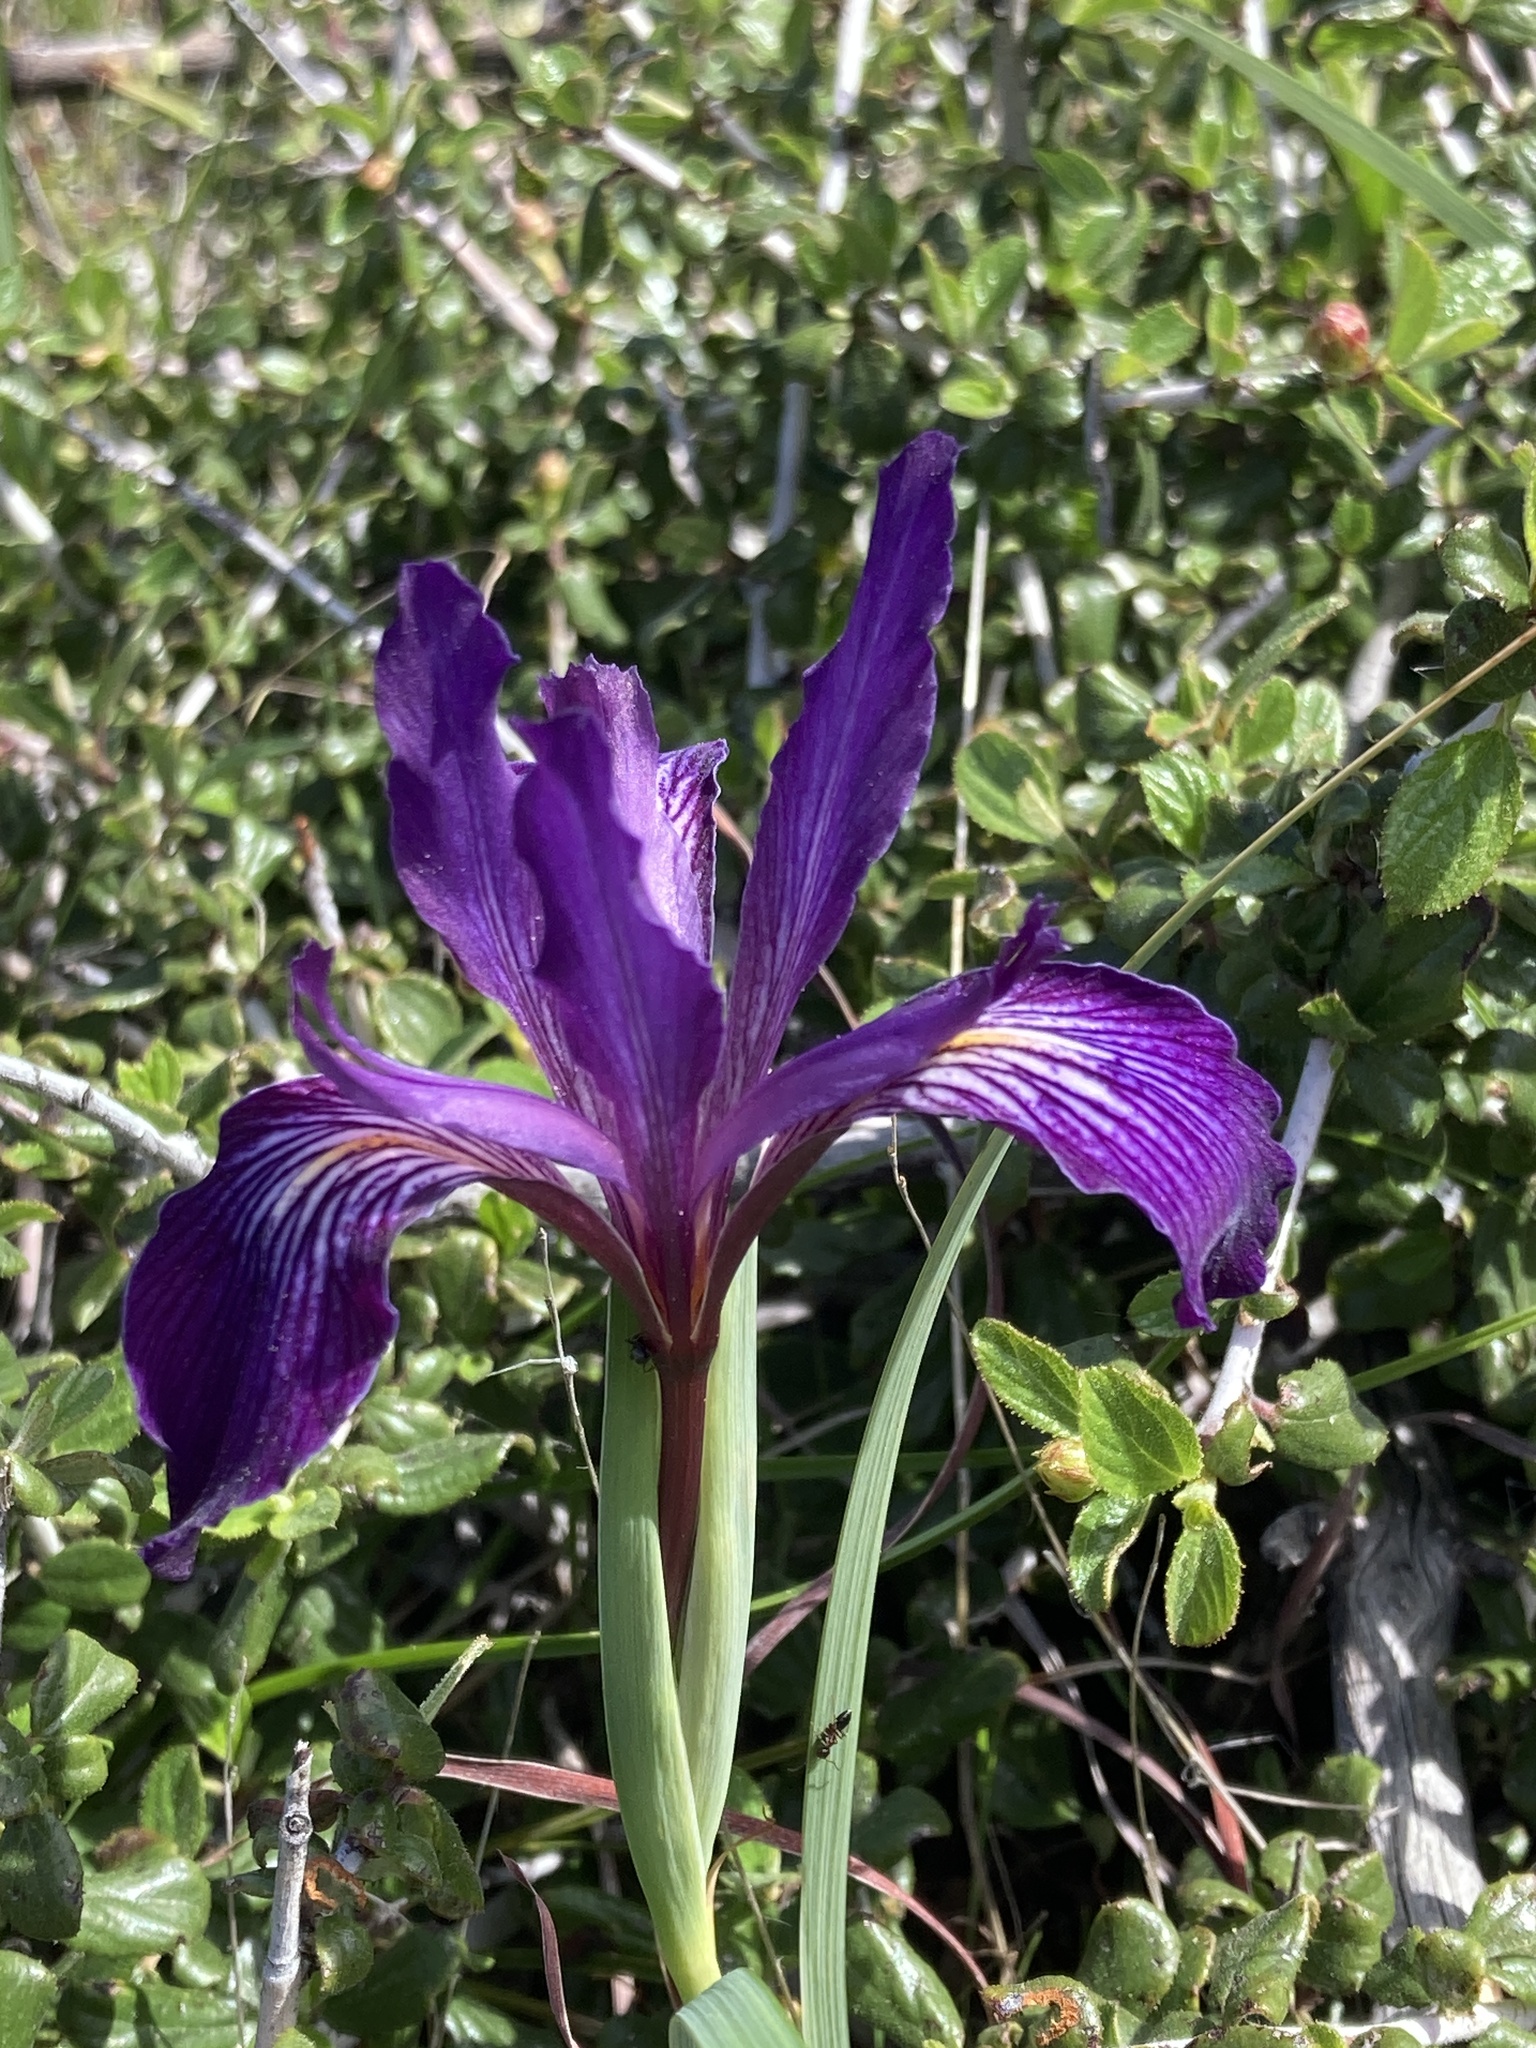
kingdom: Plantae
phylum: Tracheophyta
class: Liliopsida
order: Asparagales
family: Iridaceae
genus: Iris
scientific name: Iris macrosiphon
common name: Ground iris
